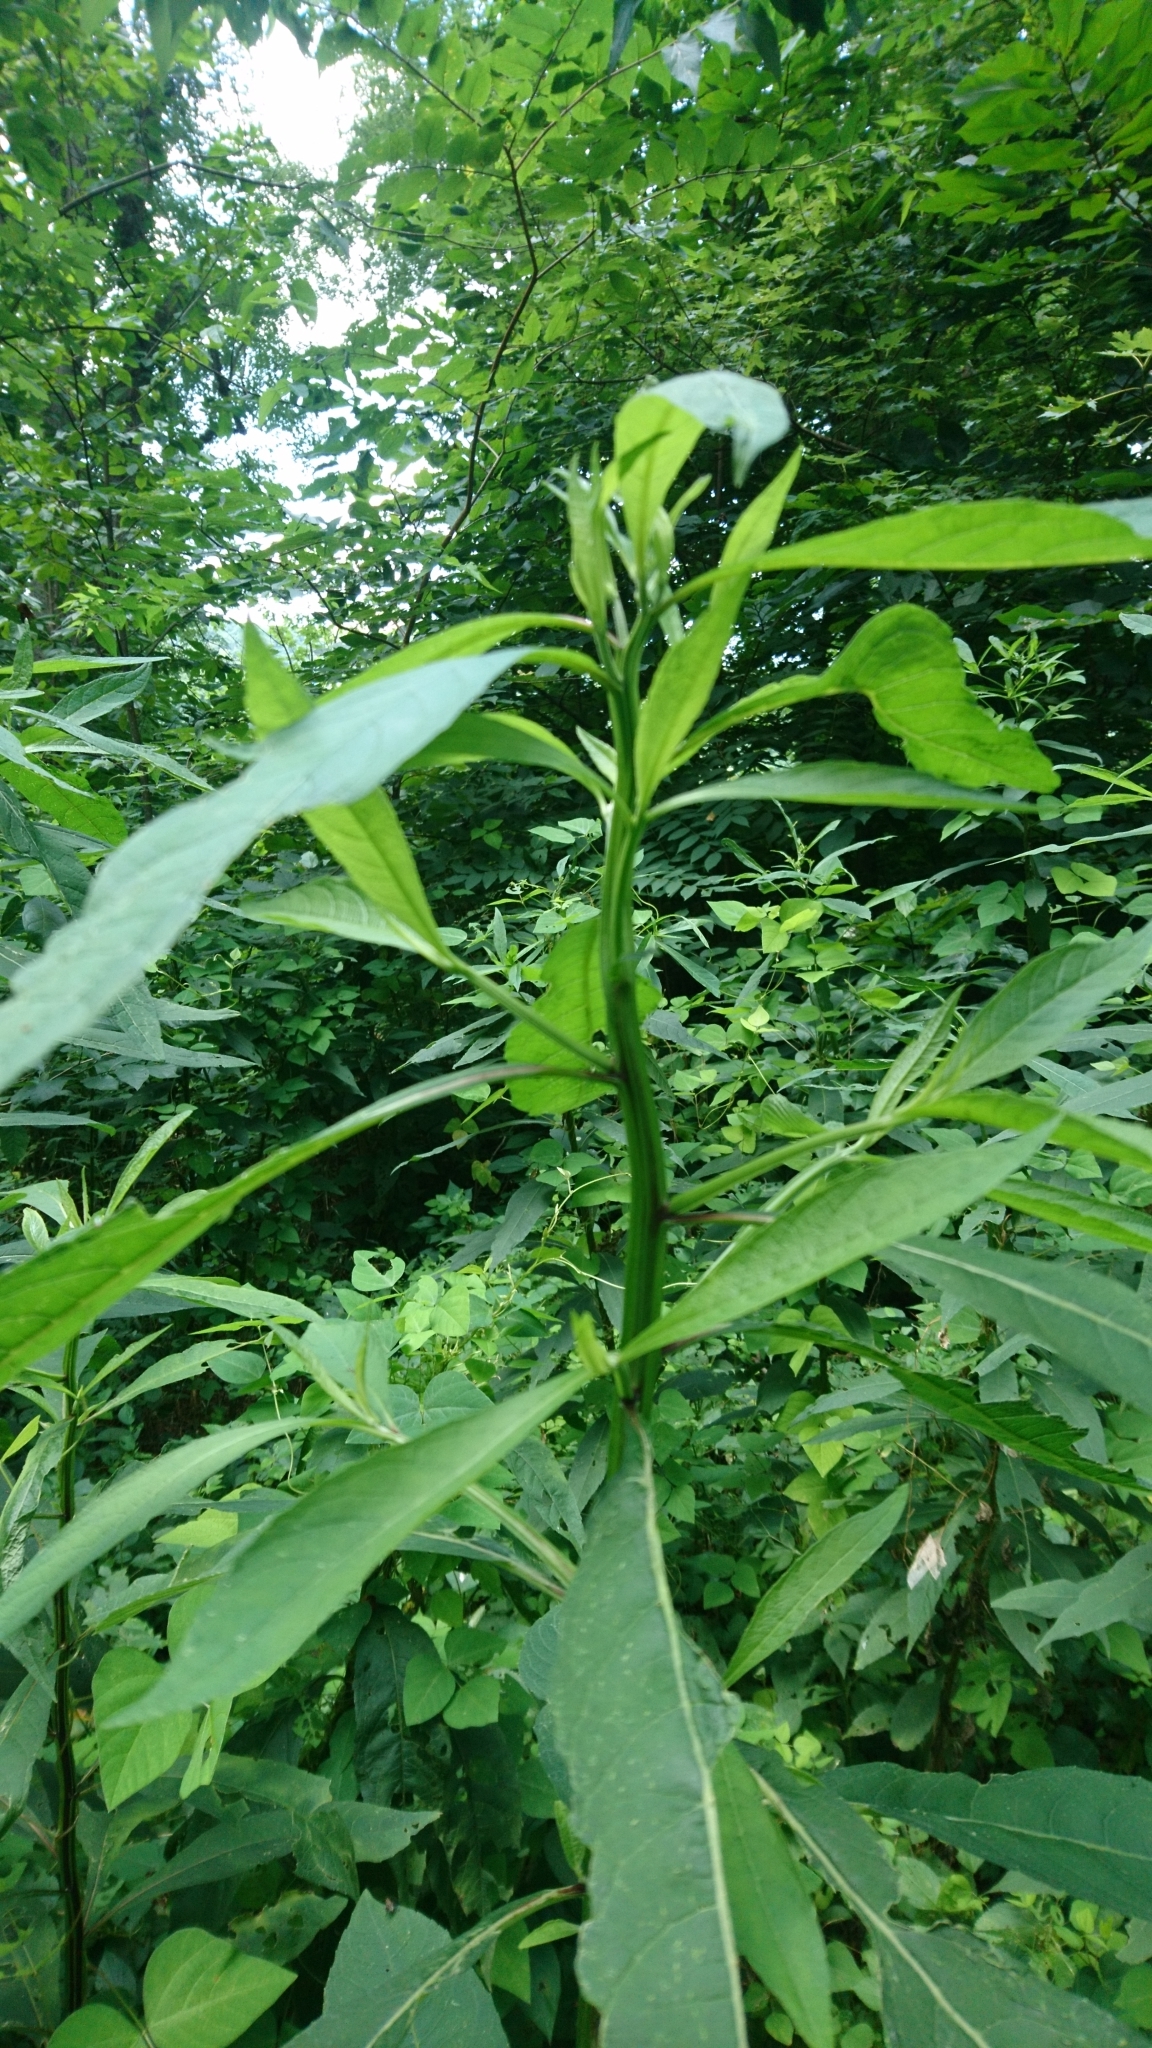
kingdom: Plantae
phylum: Tracheophyta
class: Magnoliopsida
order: Asterales
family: Asteraceae
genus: Verbesina
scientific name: Verbesina alternifolia
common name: Wingstem
